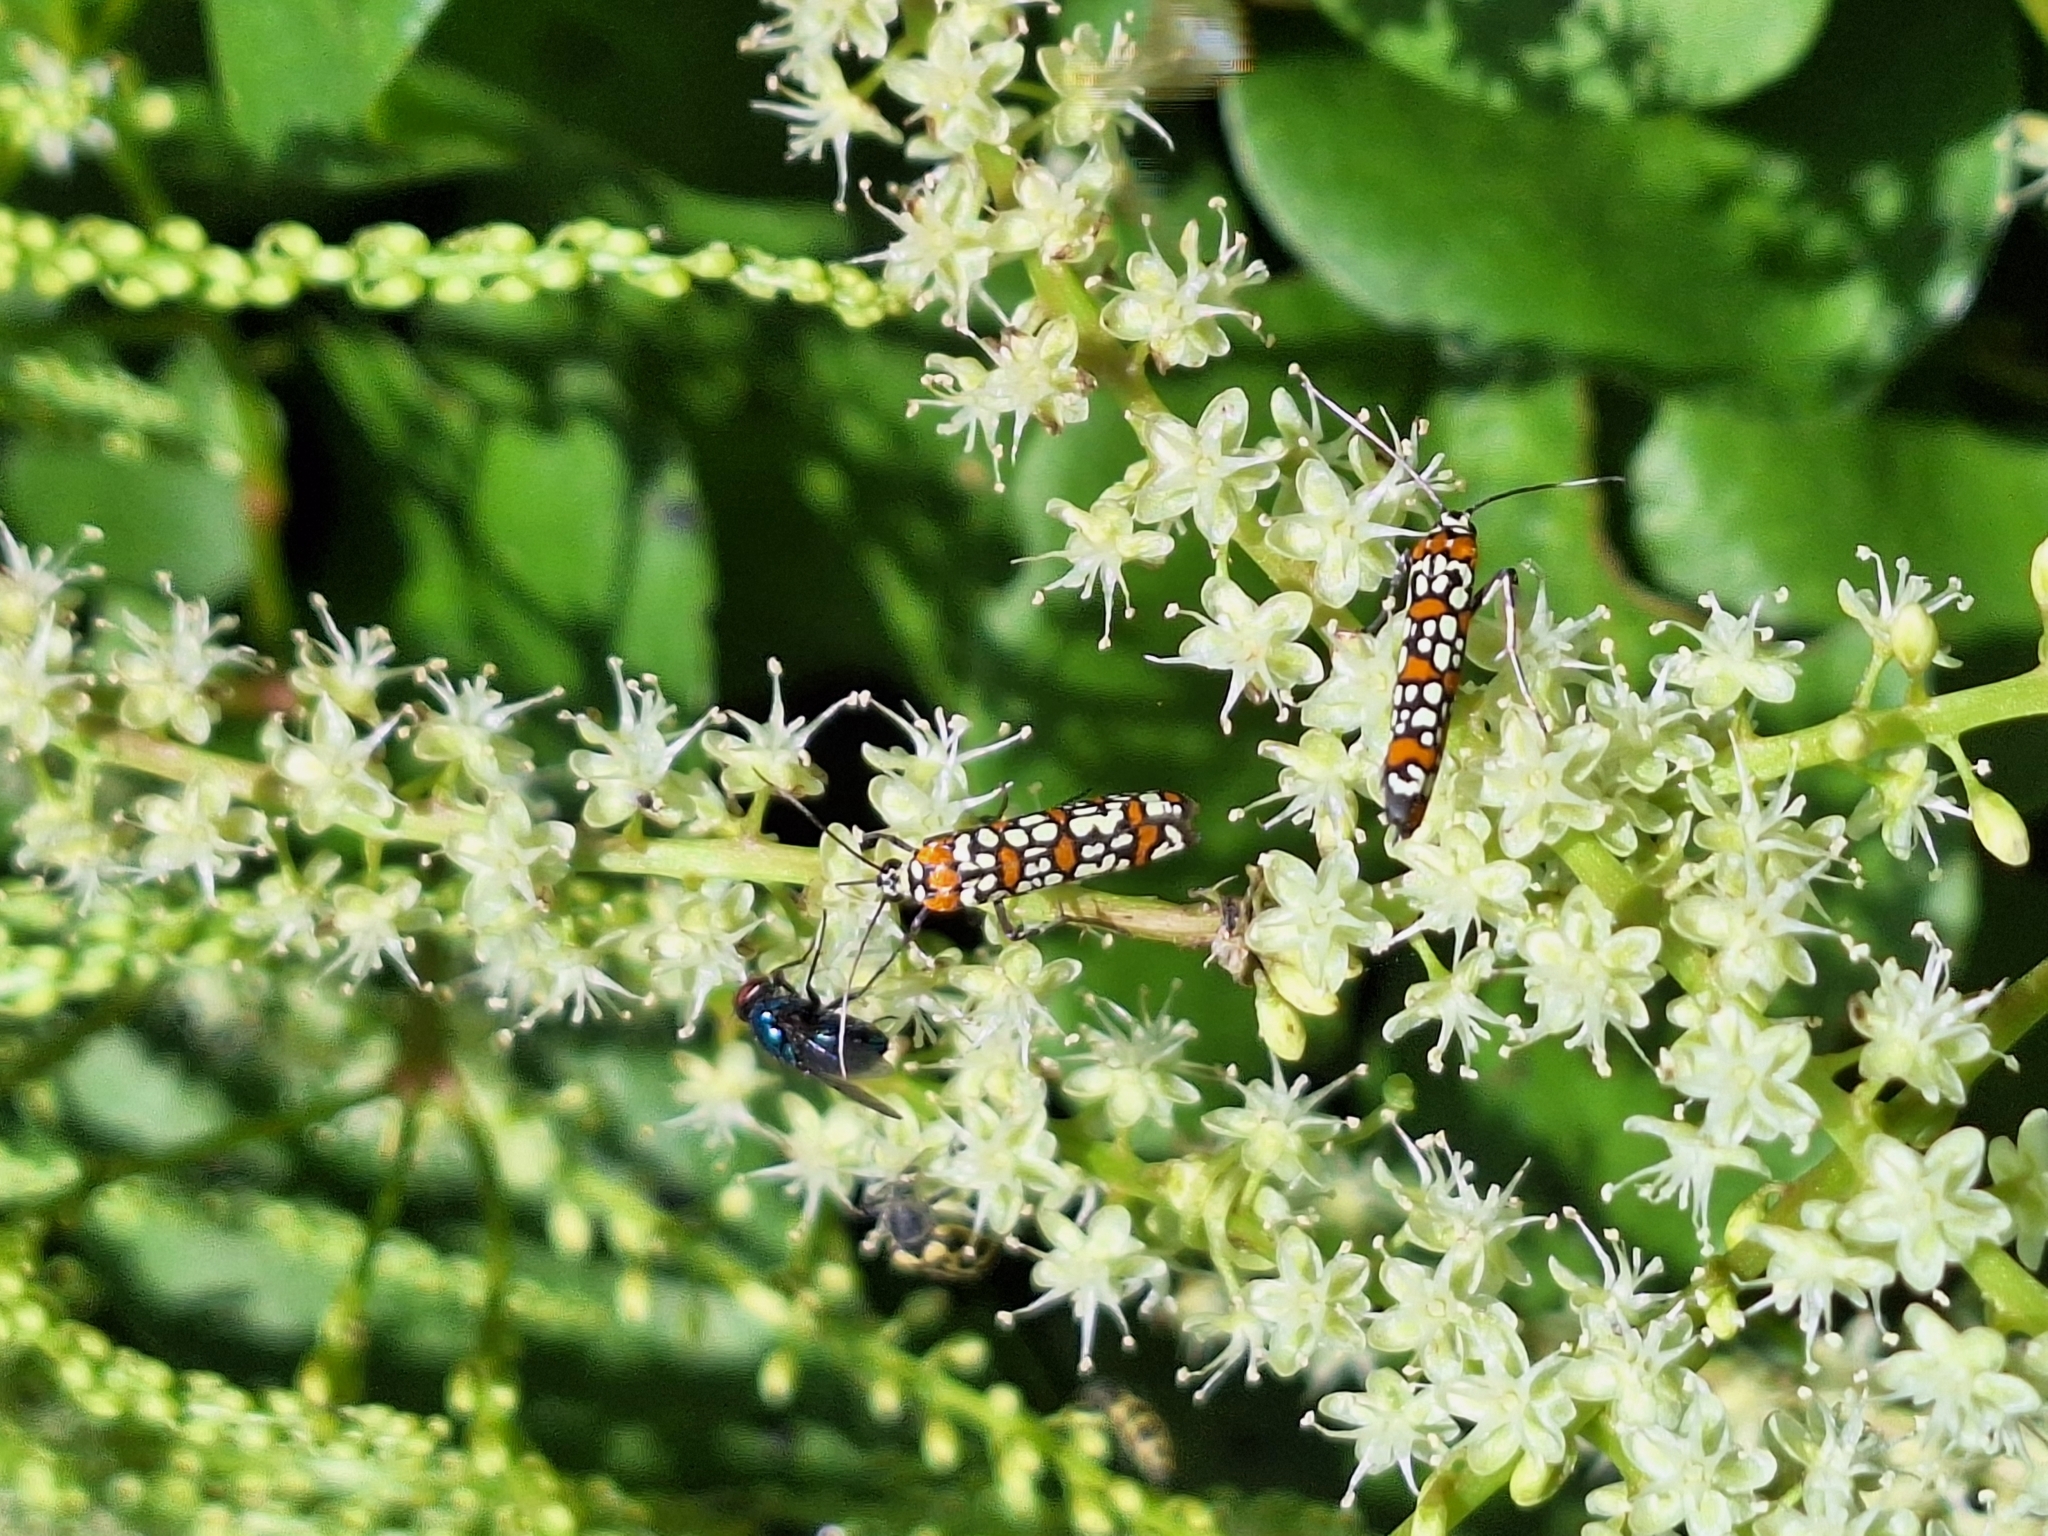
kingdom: Animalia
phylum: Arthropoda
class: Insecta
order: Lepidoptera
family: Attevidae
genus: Atteva
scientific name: Atteva punctella
